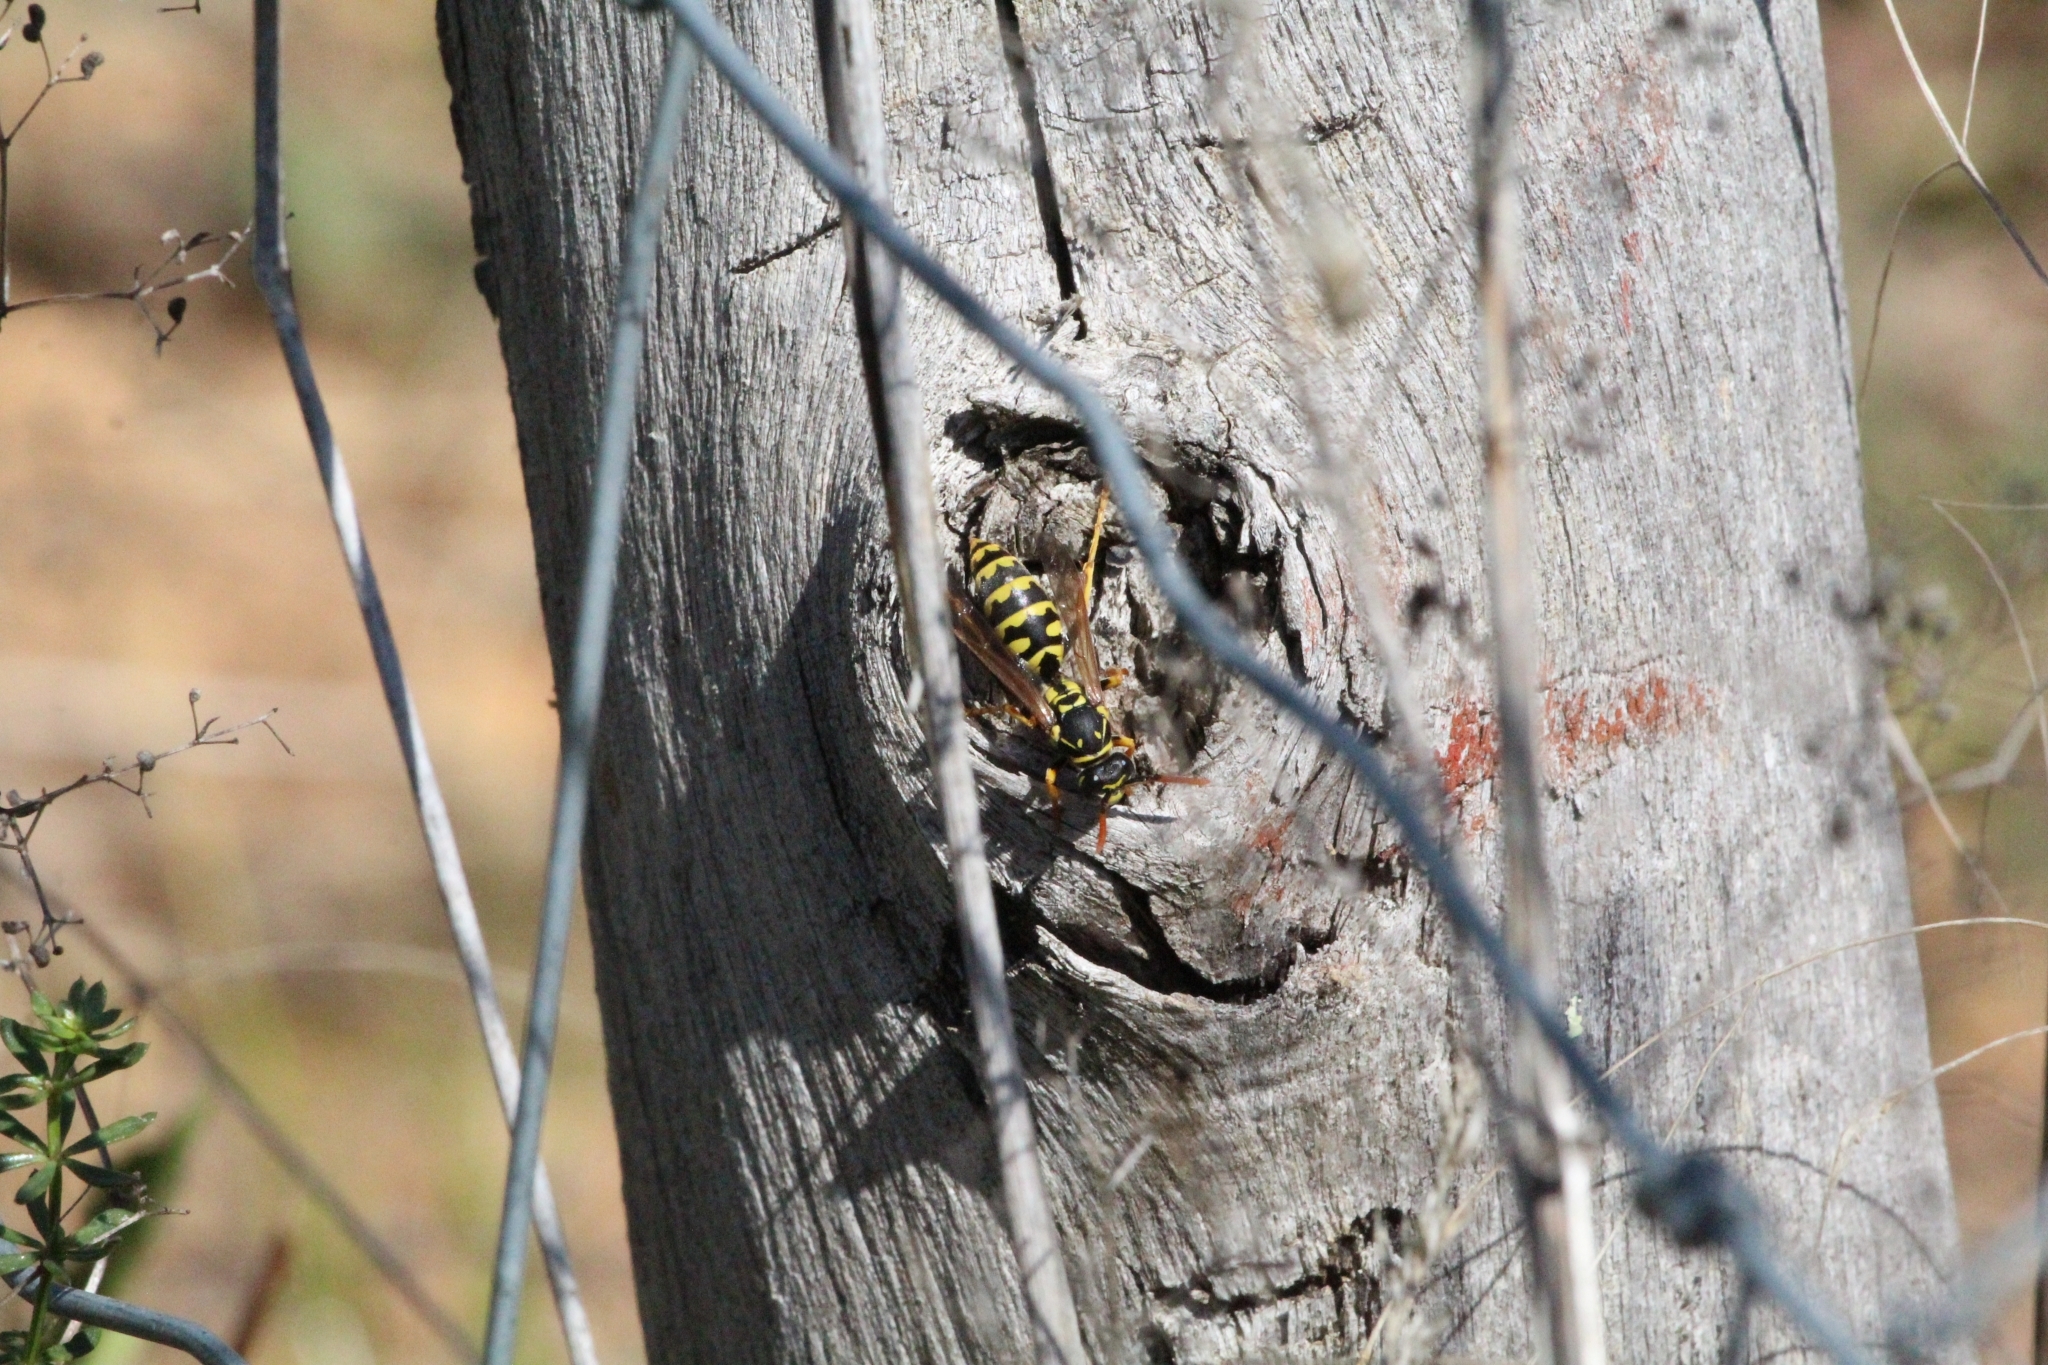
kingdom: Animalia
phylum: Arthropoda
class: Insecta
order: Hymenoptera
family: Eumenidae
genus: Polistes
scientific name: Polistes dominula
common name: Paper wasp
